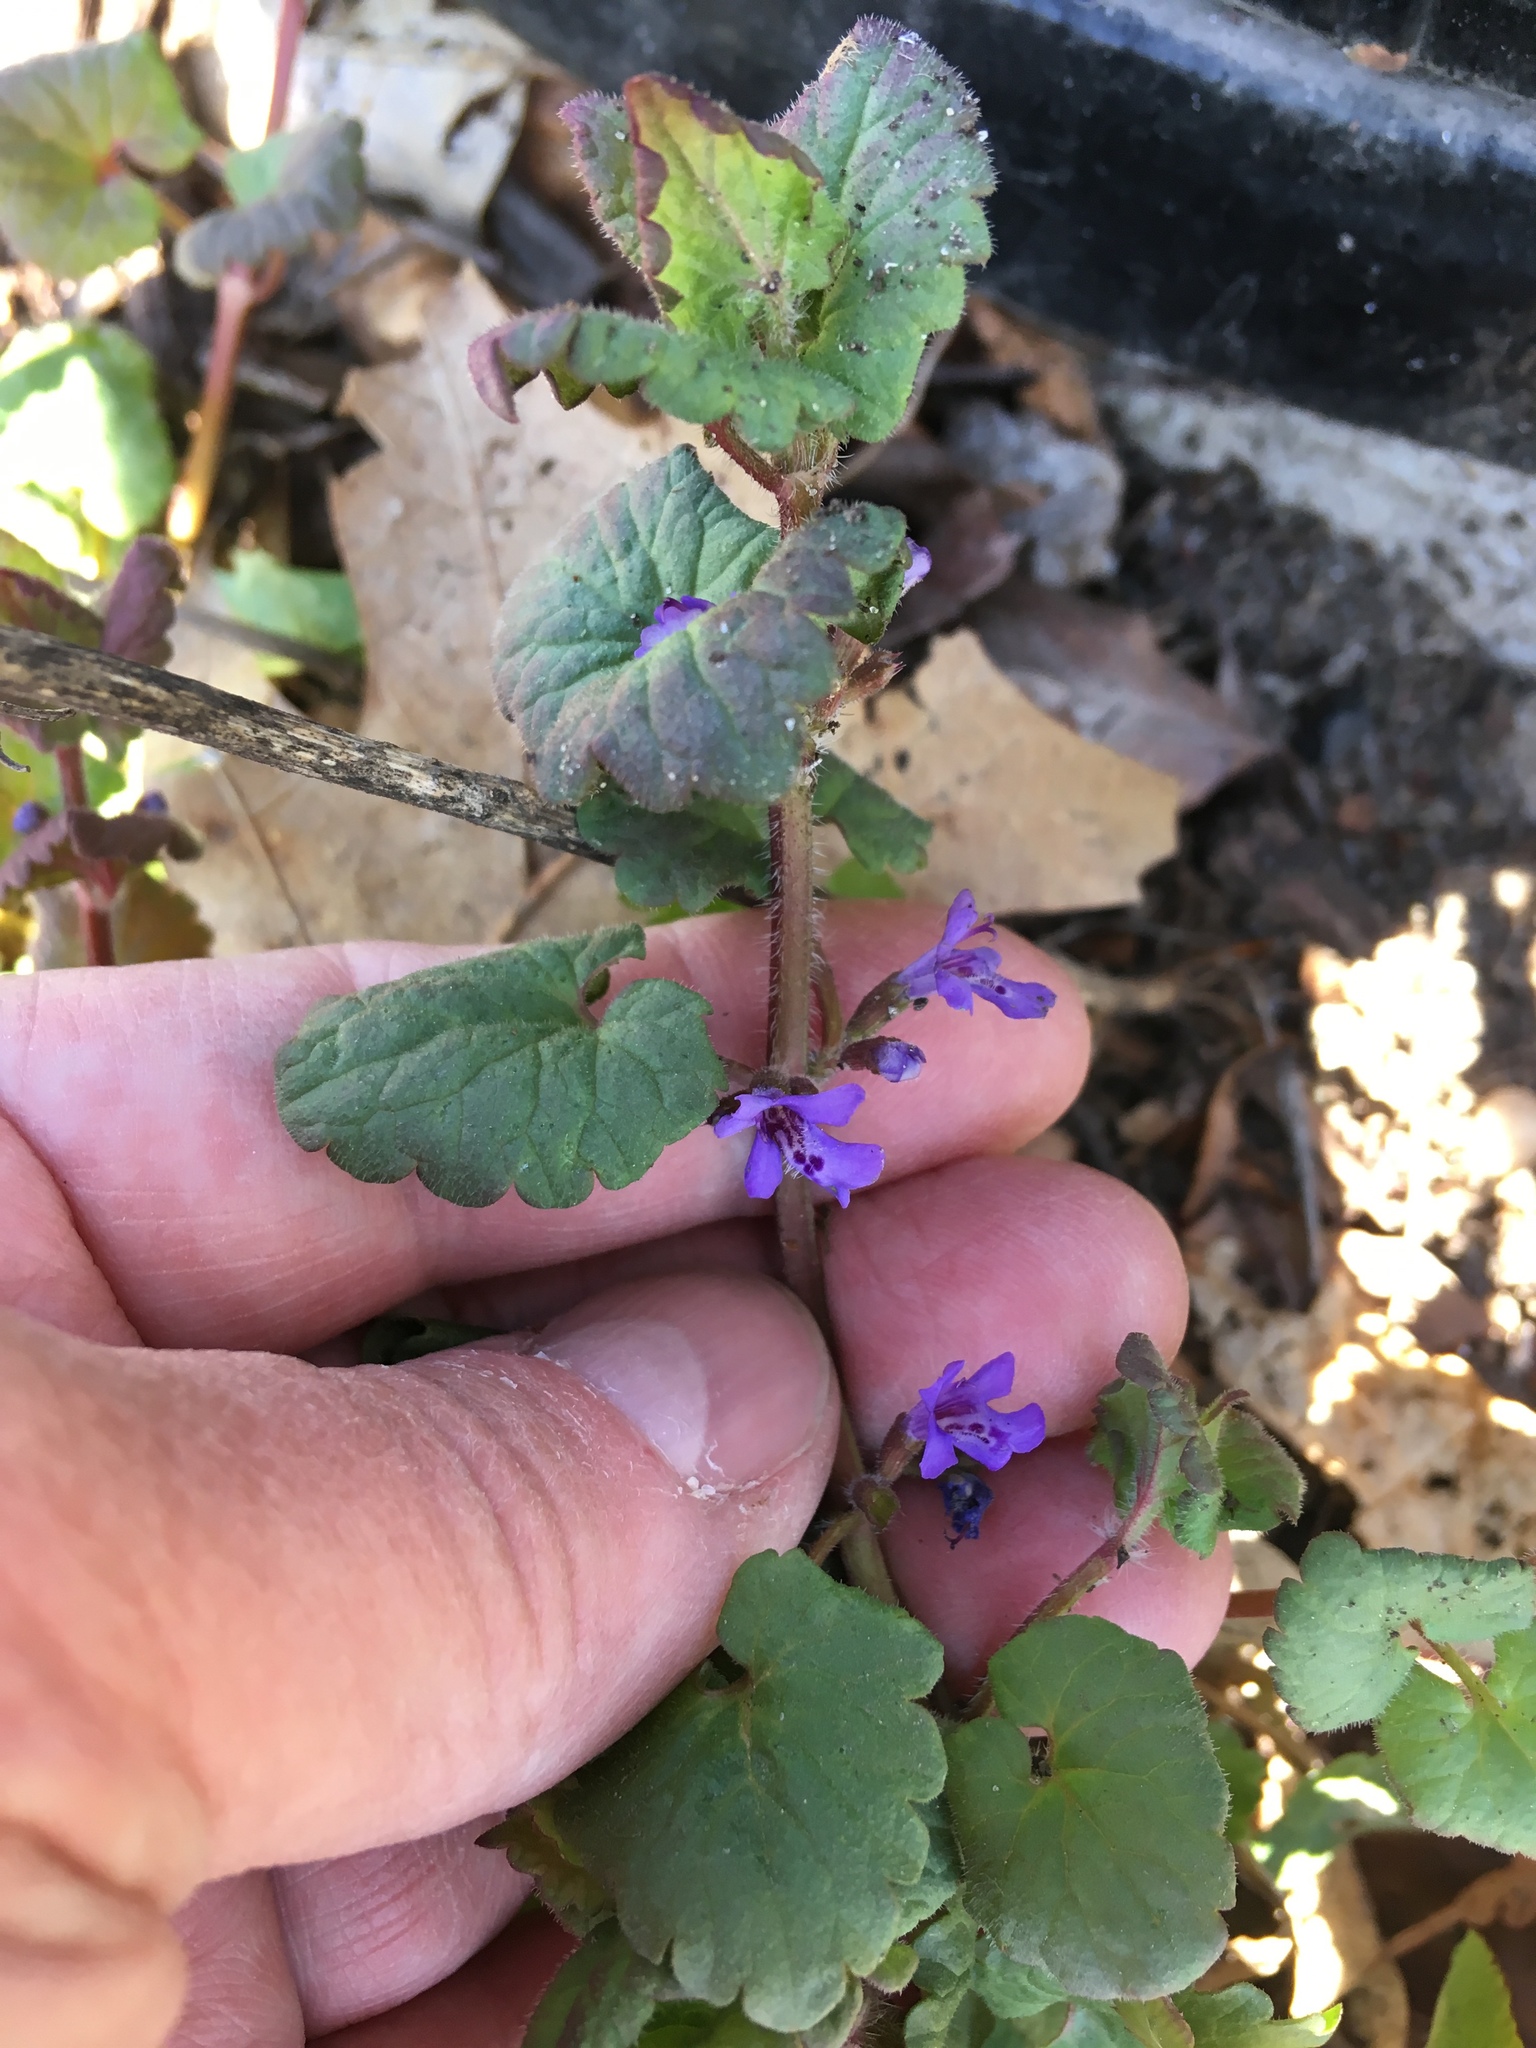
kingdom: Plantae
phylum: Tracheophyta
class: Magnoliopsida
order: Lamiales
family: Lamiaceae
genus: Glechoma
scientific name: Glechoma hederacea
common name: Ground ivy
